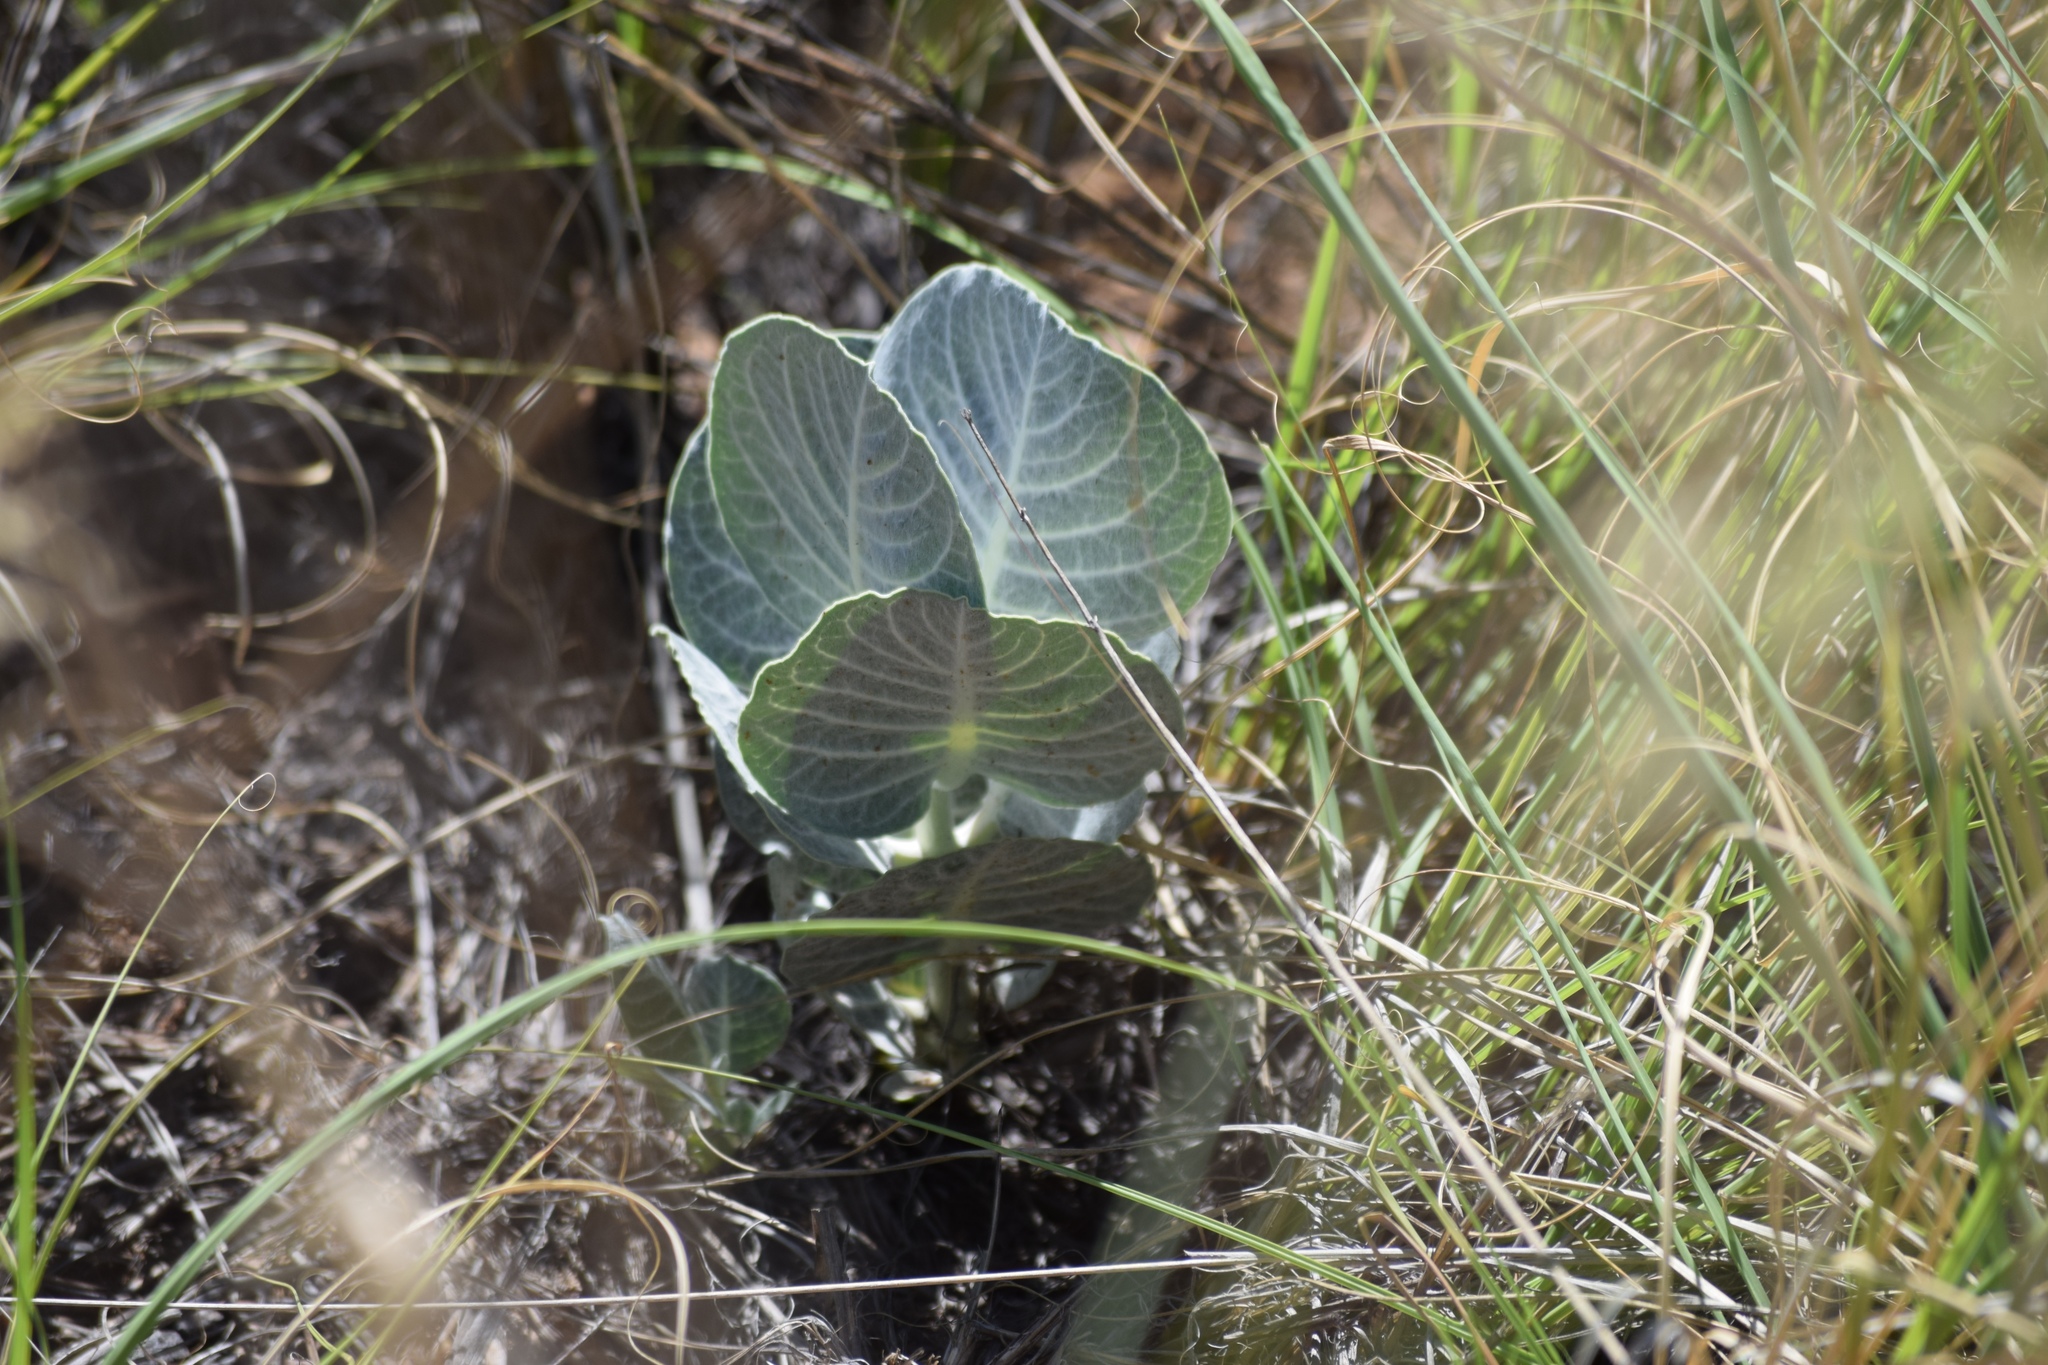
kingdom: Plantae
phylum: Tracheophyta
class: Magnoliopsida
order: Gentianales
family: Apocynaceae
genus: Asclepias
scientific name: Asclepias nummularia
